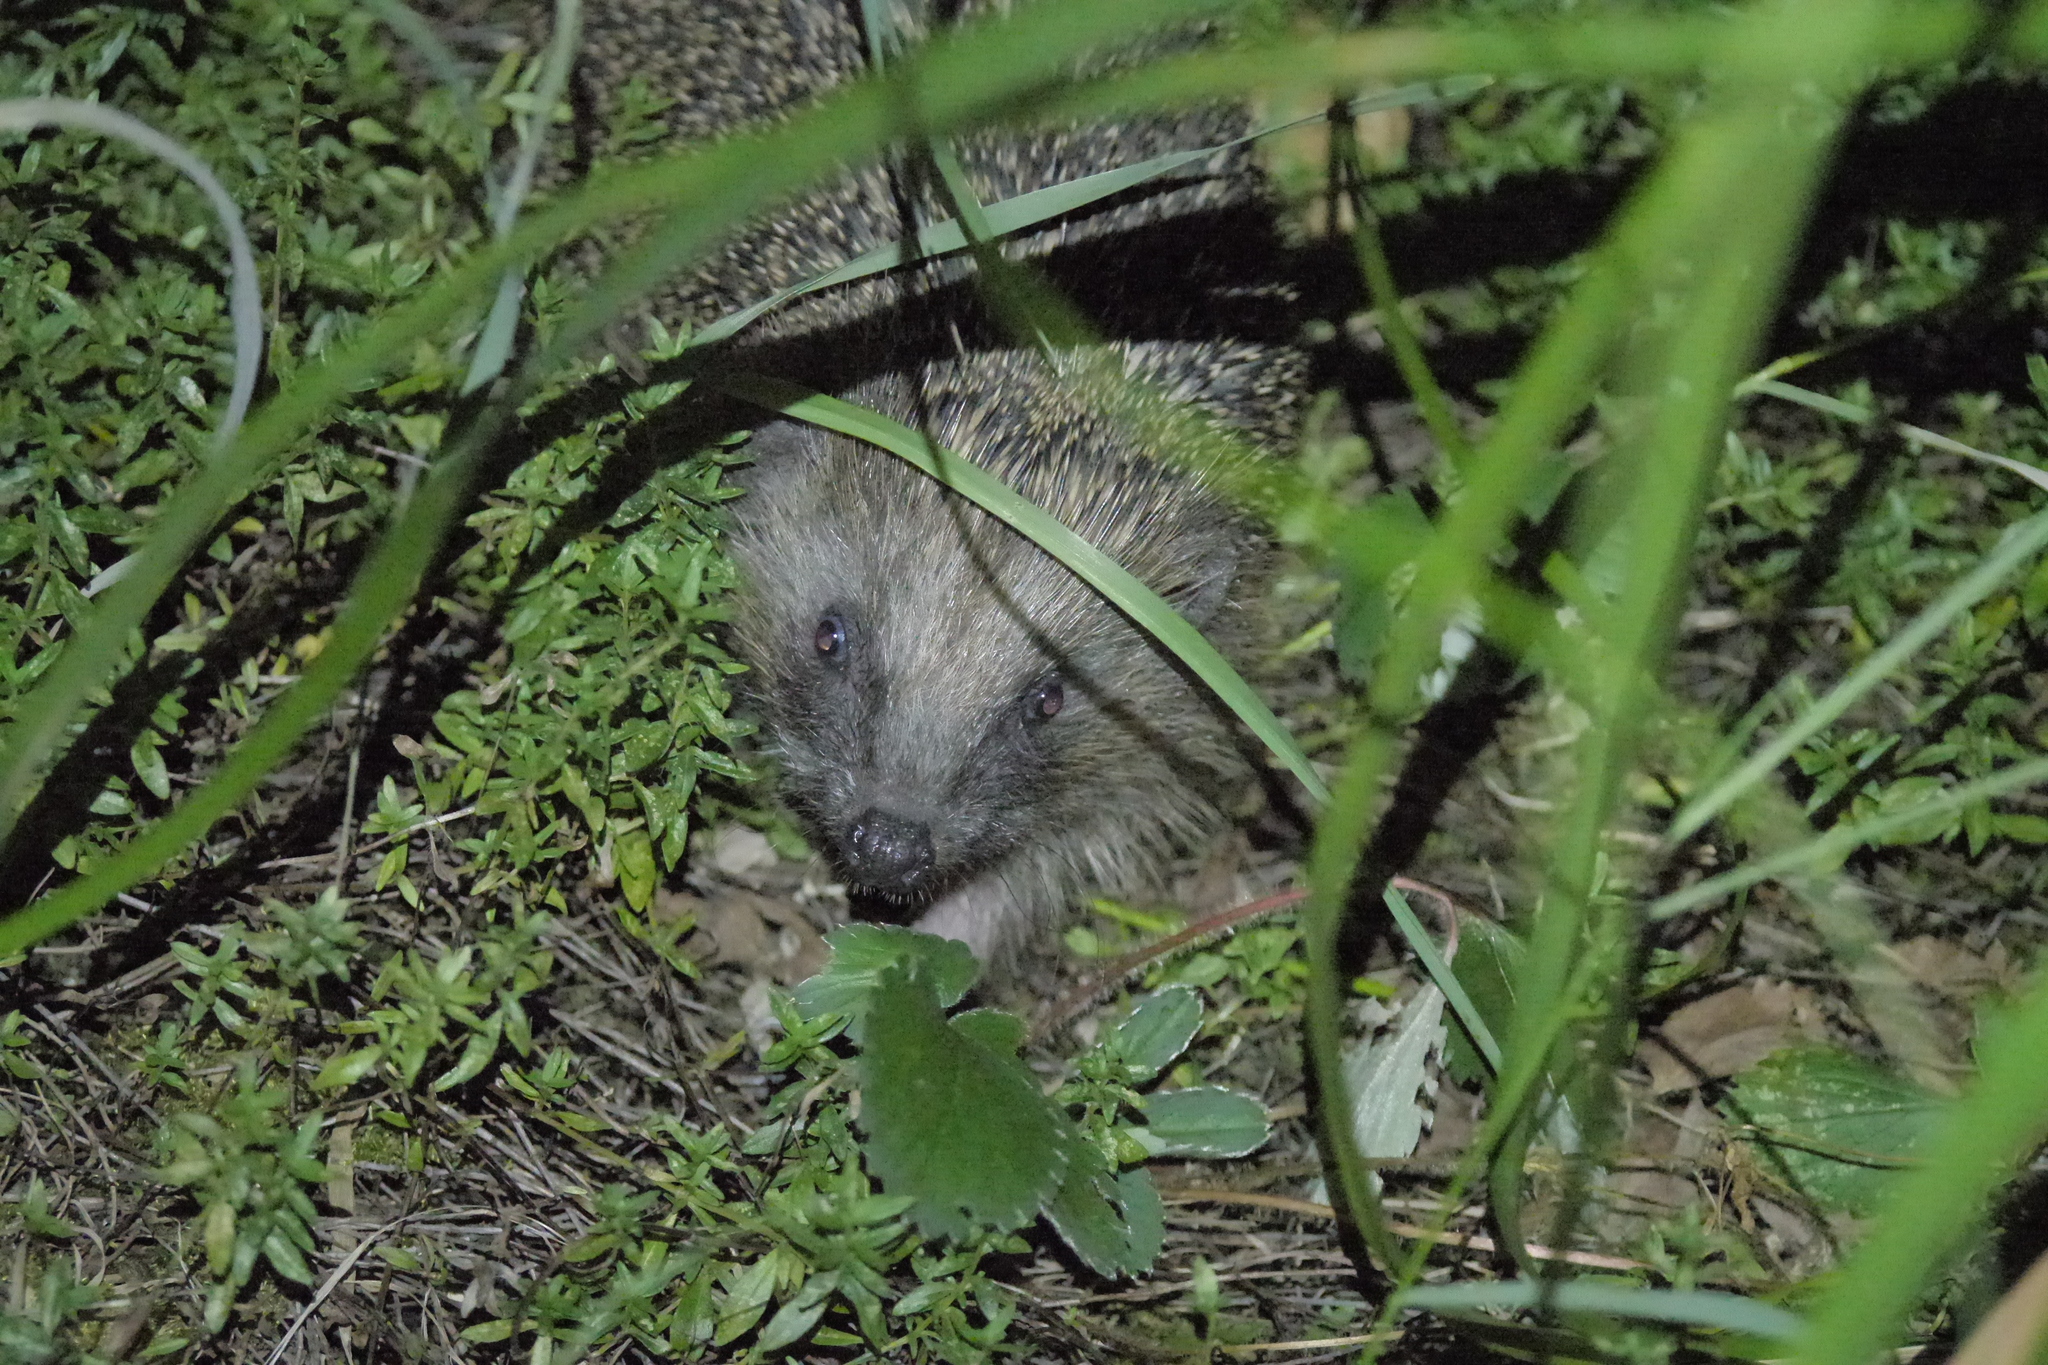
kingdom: Animalia
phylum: Chordata
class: Mammalia
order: Erinaceomorpha
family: Erinaceidae
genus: Erinaceus
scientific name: Erinaceus europaeus
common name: West european hedgehog
